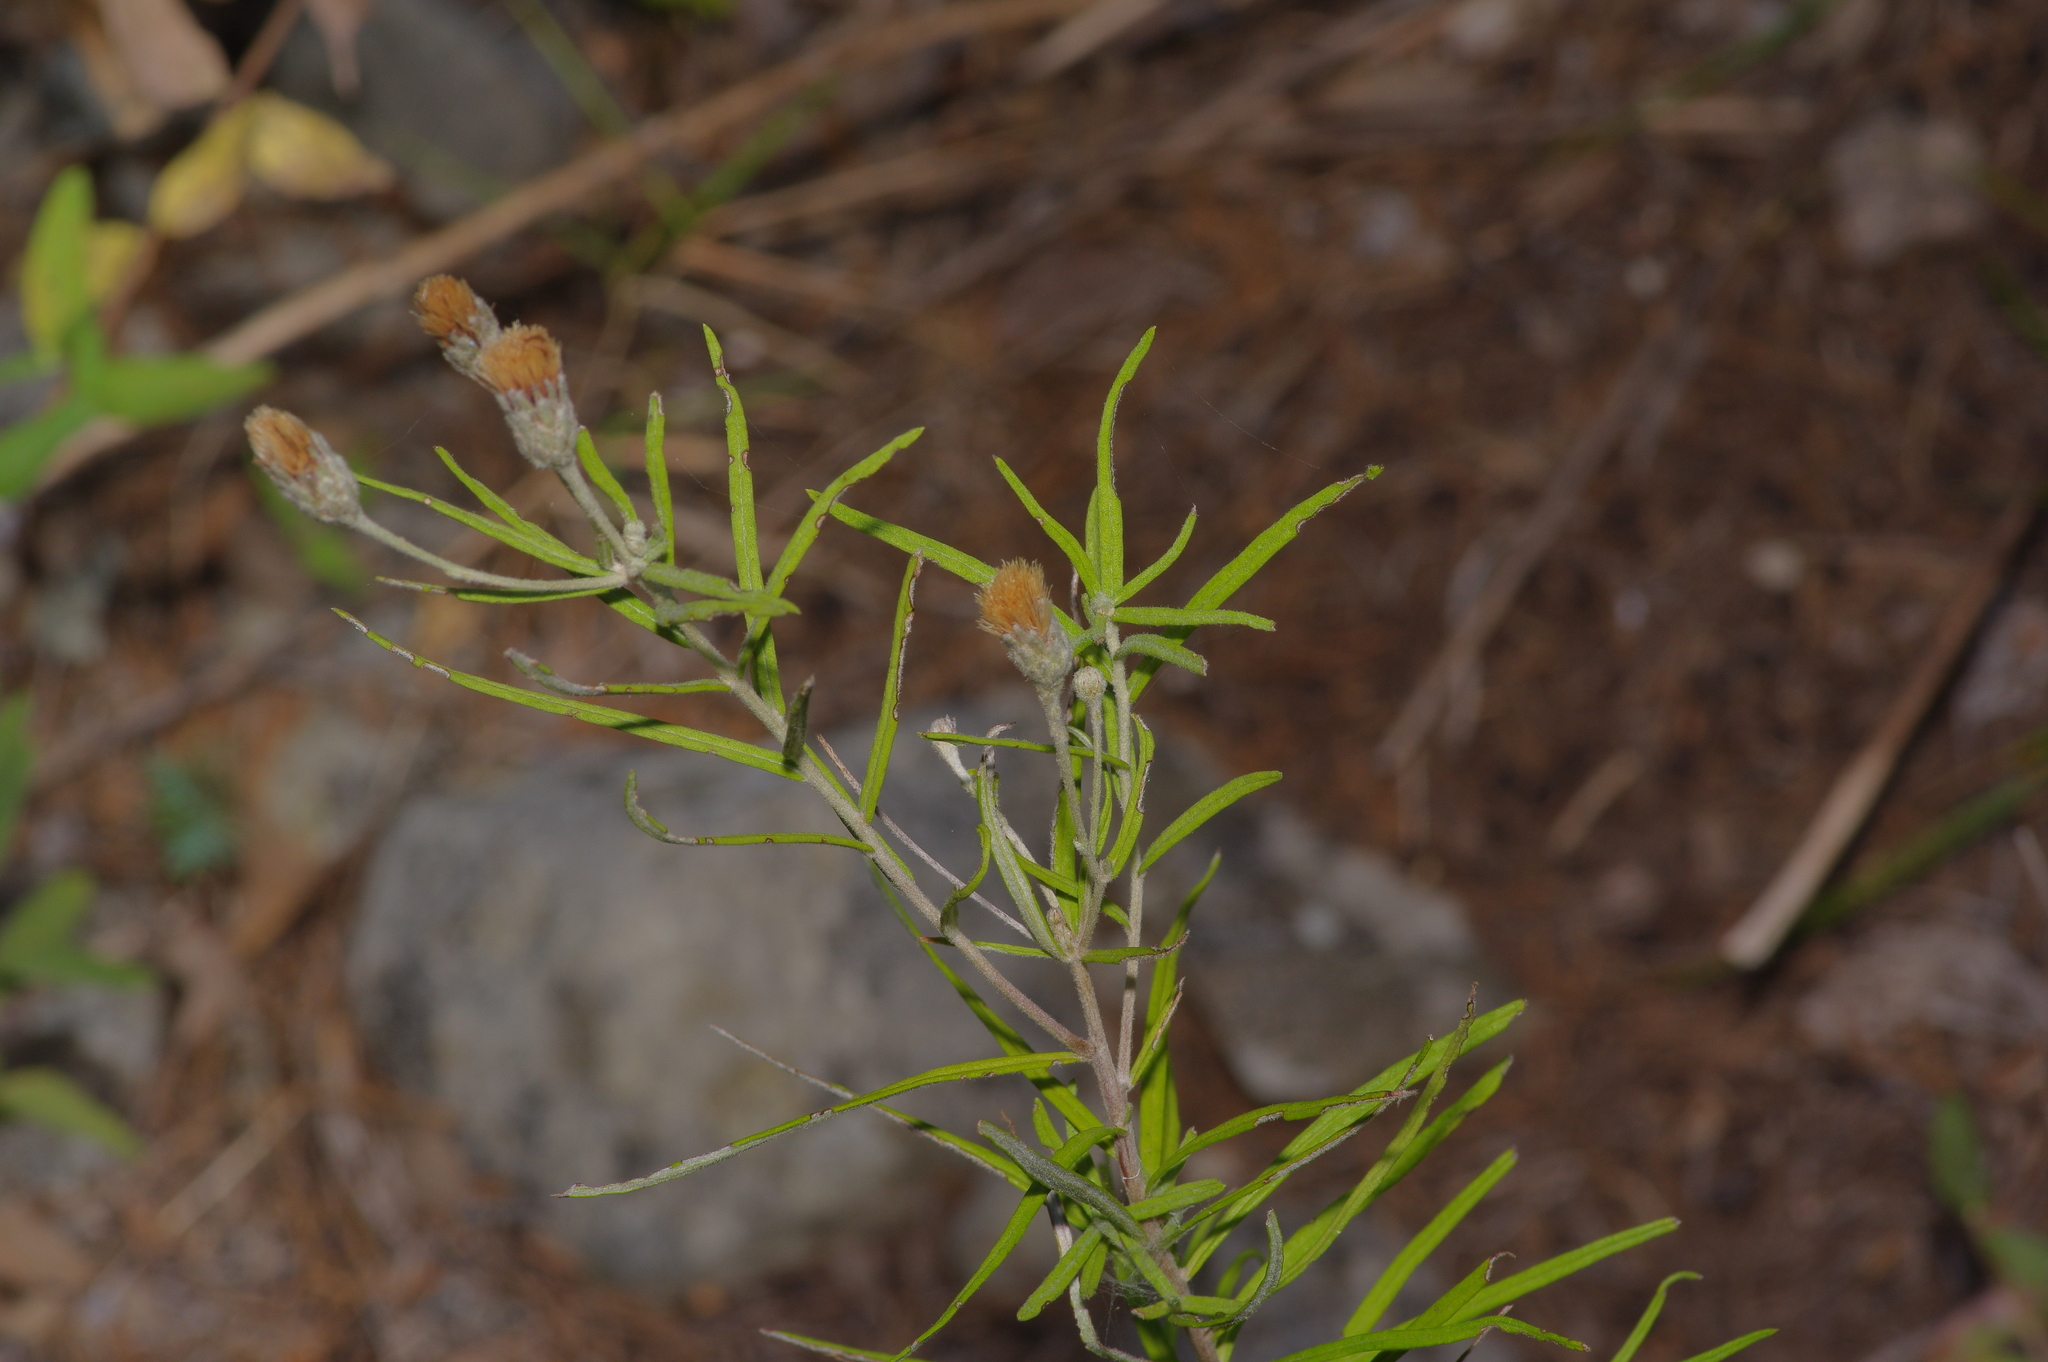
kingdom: Plantae
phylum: Tracheophyta
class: Magnoliopsida
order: Asterales
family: Asteraceae
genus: Vernonia
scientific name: Vernonia lindheimeri
